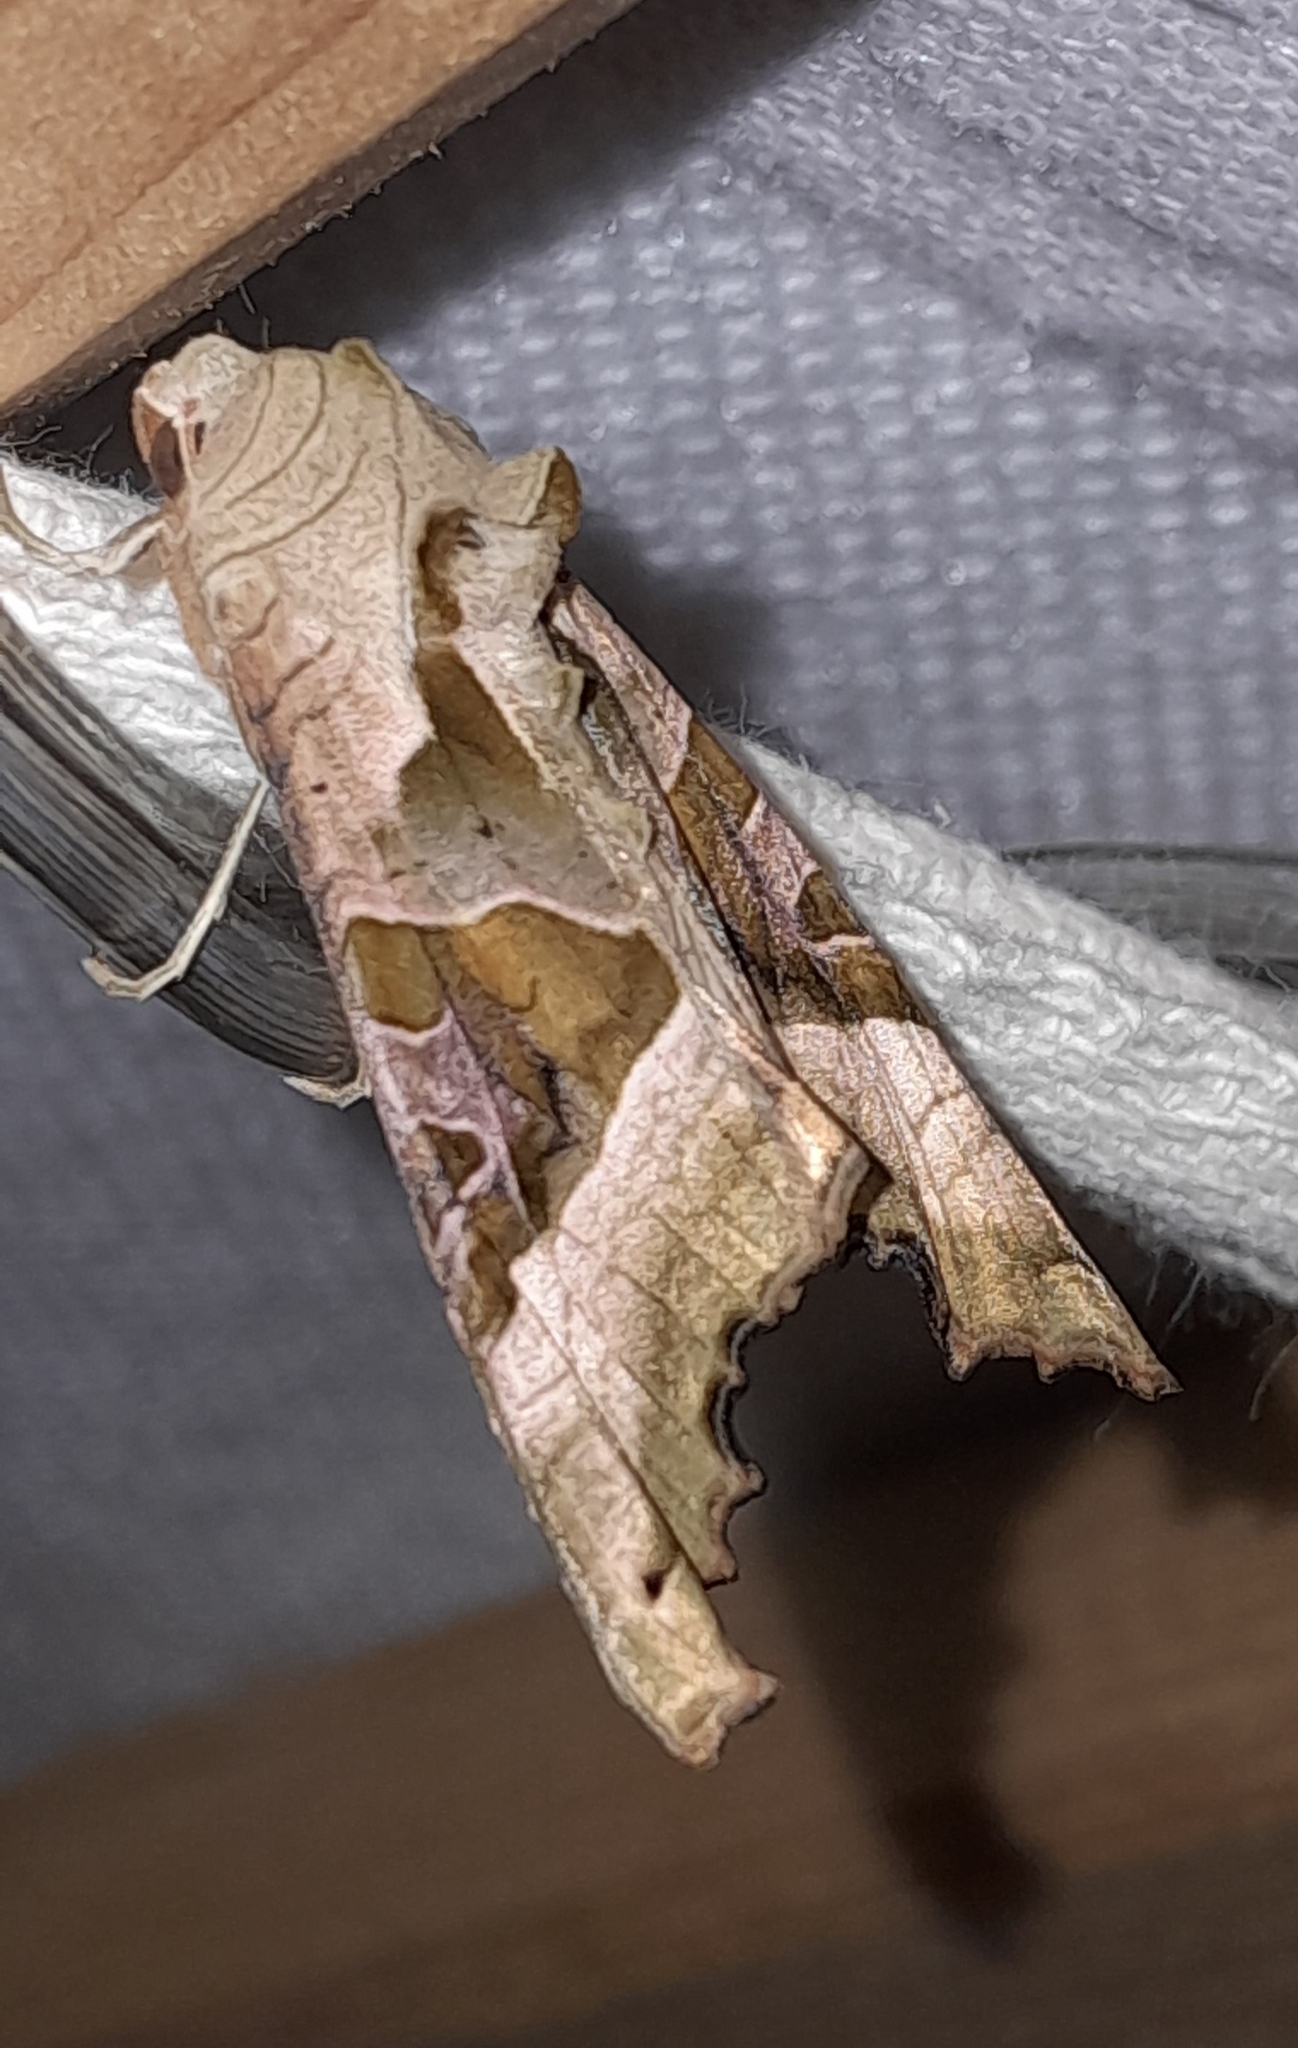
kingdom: Animalia
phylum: Arthropoda
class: Insecta
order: Lepidoptera
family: Noctuidae
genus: Phlogophora
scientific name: Phlogophora meticulosa
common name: Angle shades
